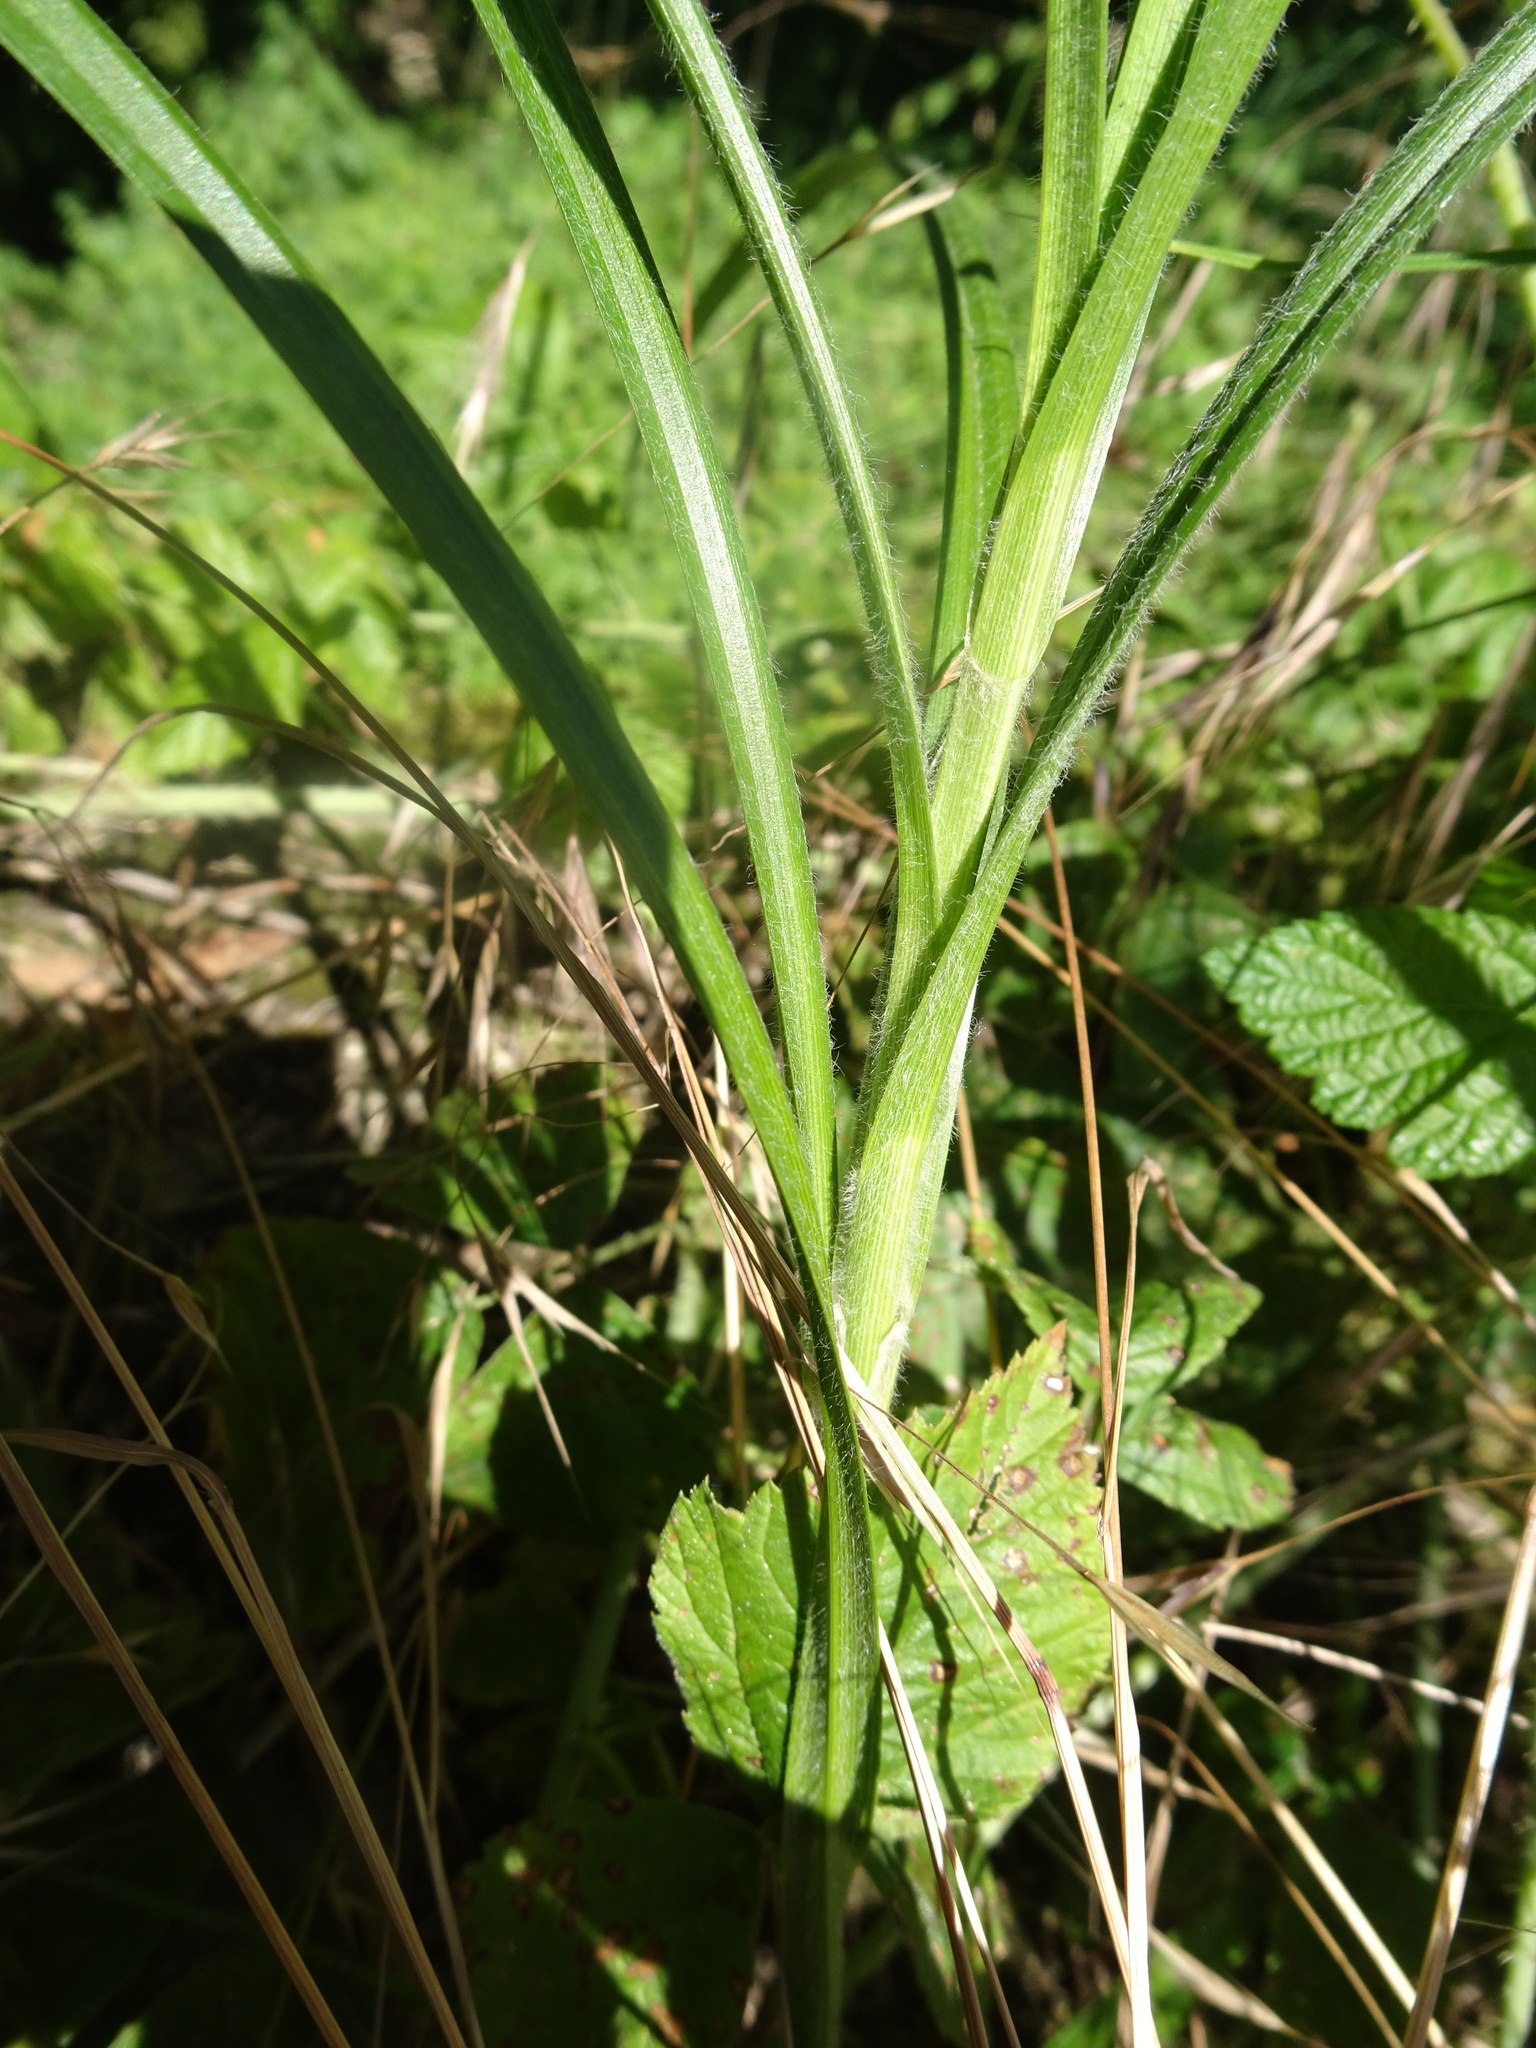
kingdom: Plantae
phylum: Tracheophyta
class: Liliopsida
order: Poales
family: Cyperaceae
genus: Carex
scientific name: Carex hirta
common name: Hairy sedge
